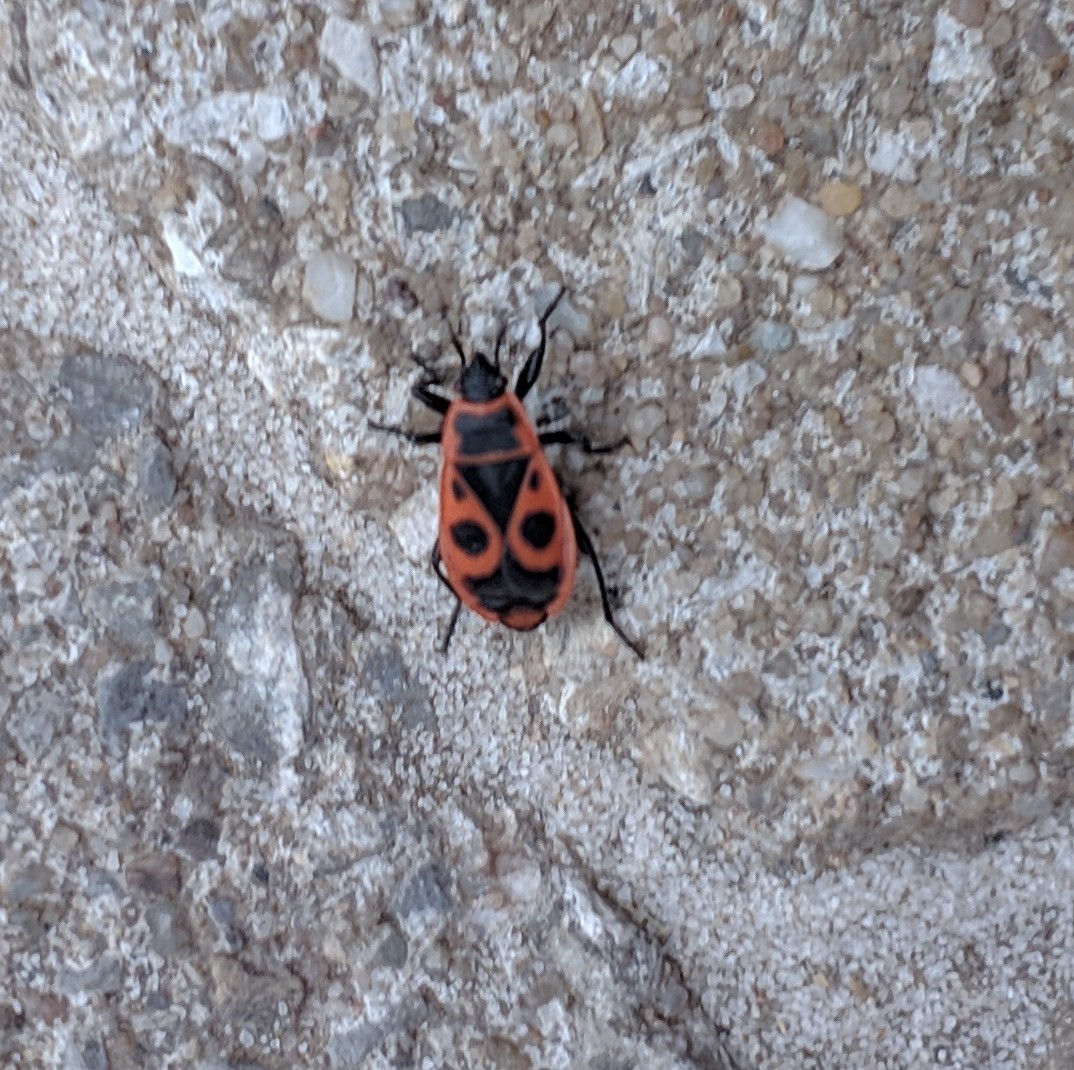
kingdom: Animalia
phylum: Arthropoda
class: Insecta
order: Hemiptera
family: Pyrrhocoridae
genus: Pyrrhocoris
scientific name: Pyrrhocoris apterus
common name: Firebug
